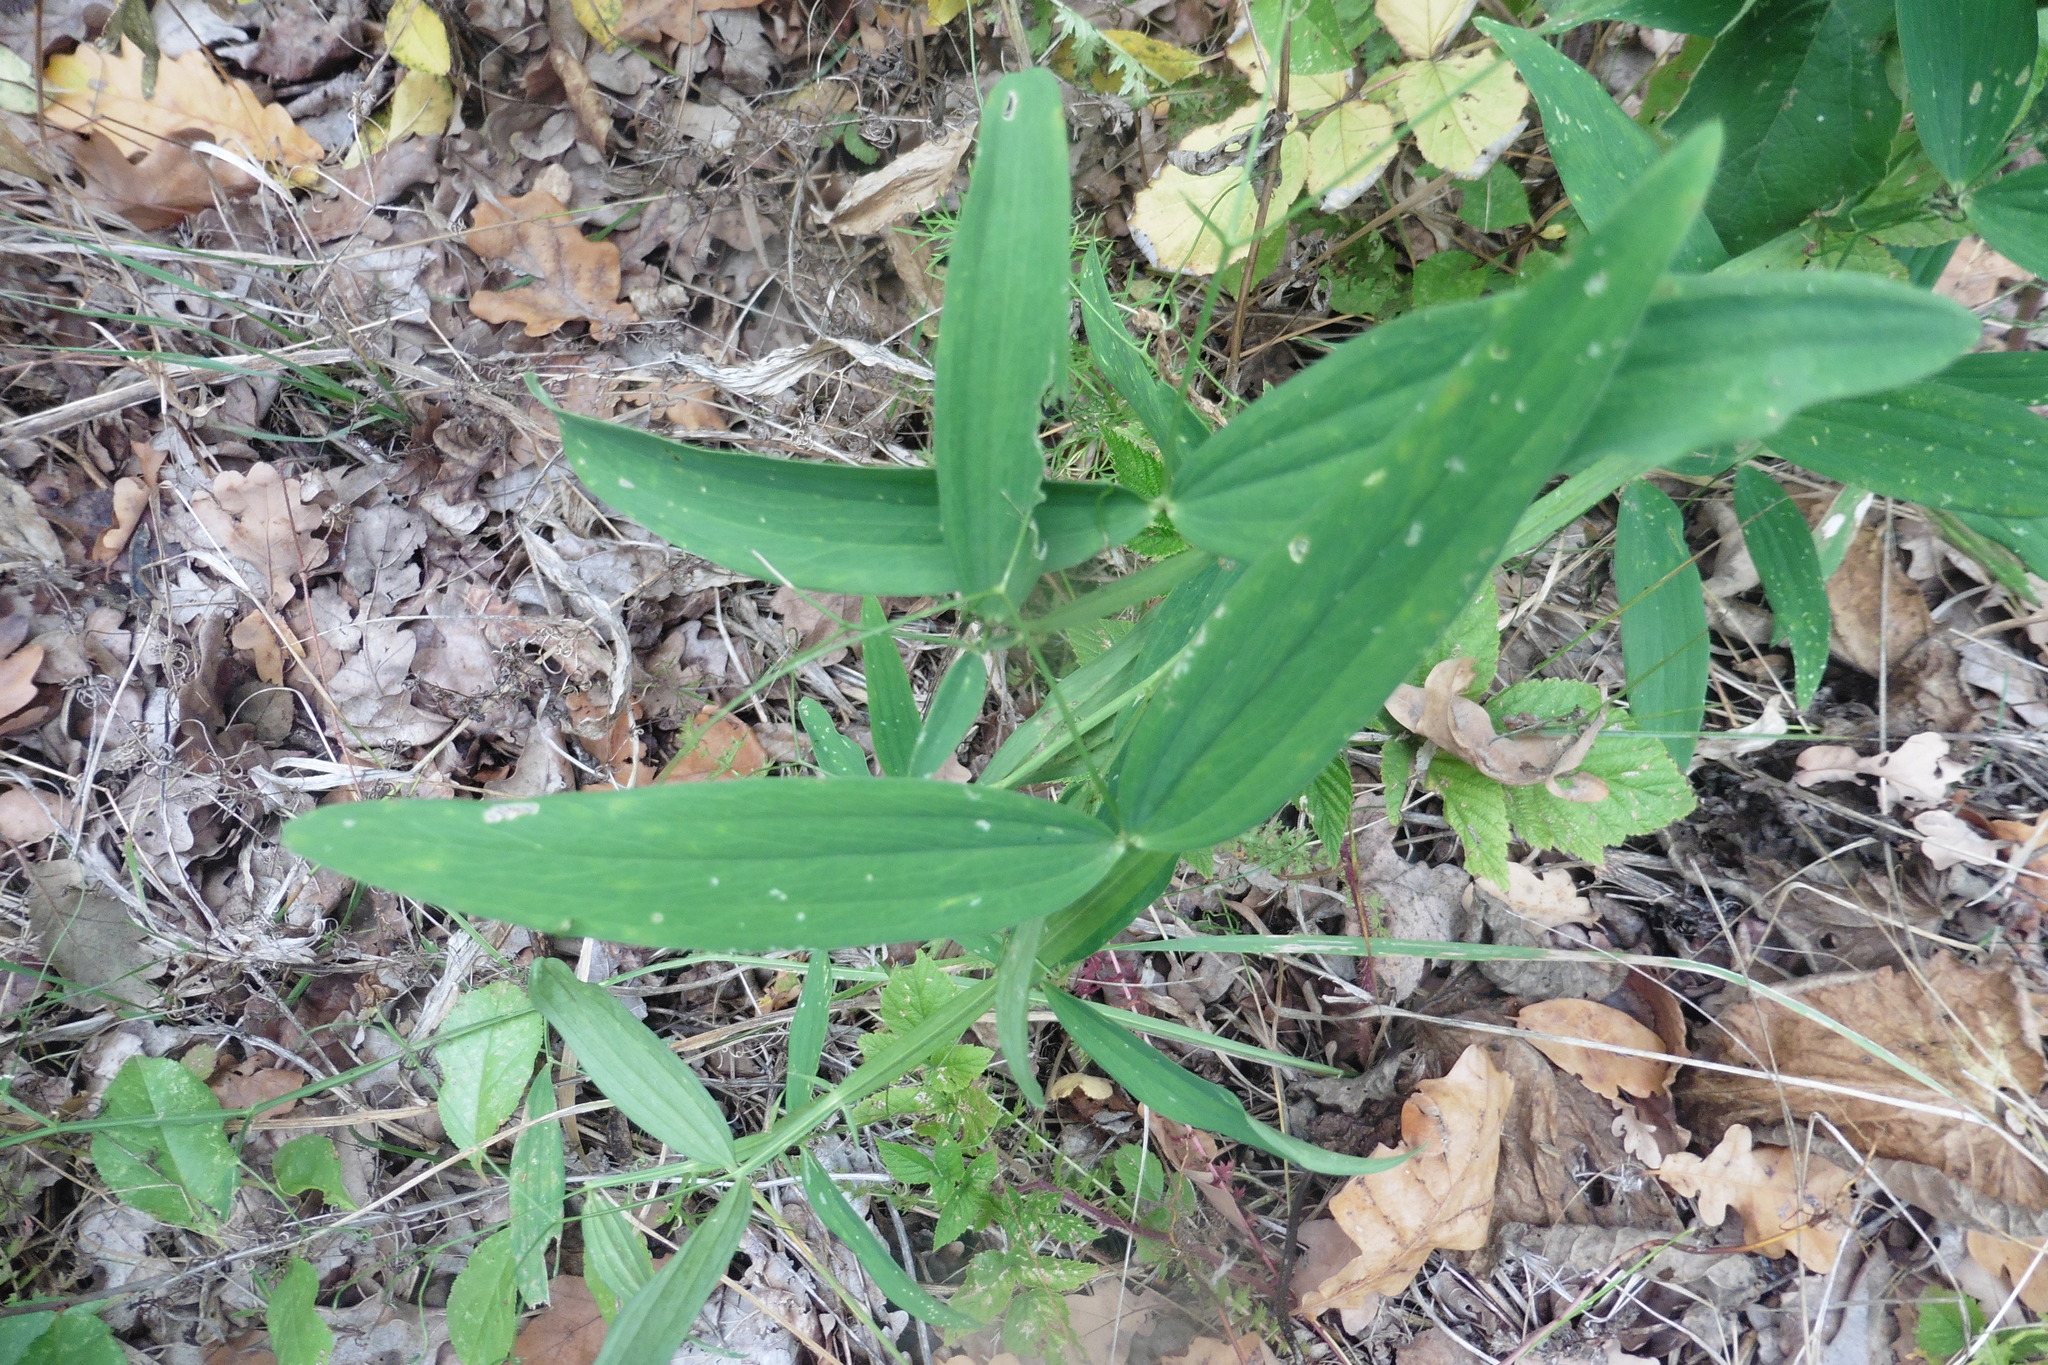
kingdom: Plantae
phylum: Tracheophyta
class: Magnoliopsida
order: Fabales
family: Fabaceae
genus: Lathyrus
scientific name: Lathyrus sylvestris
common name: Flat pea
